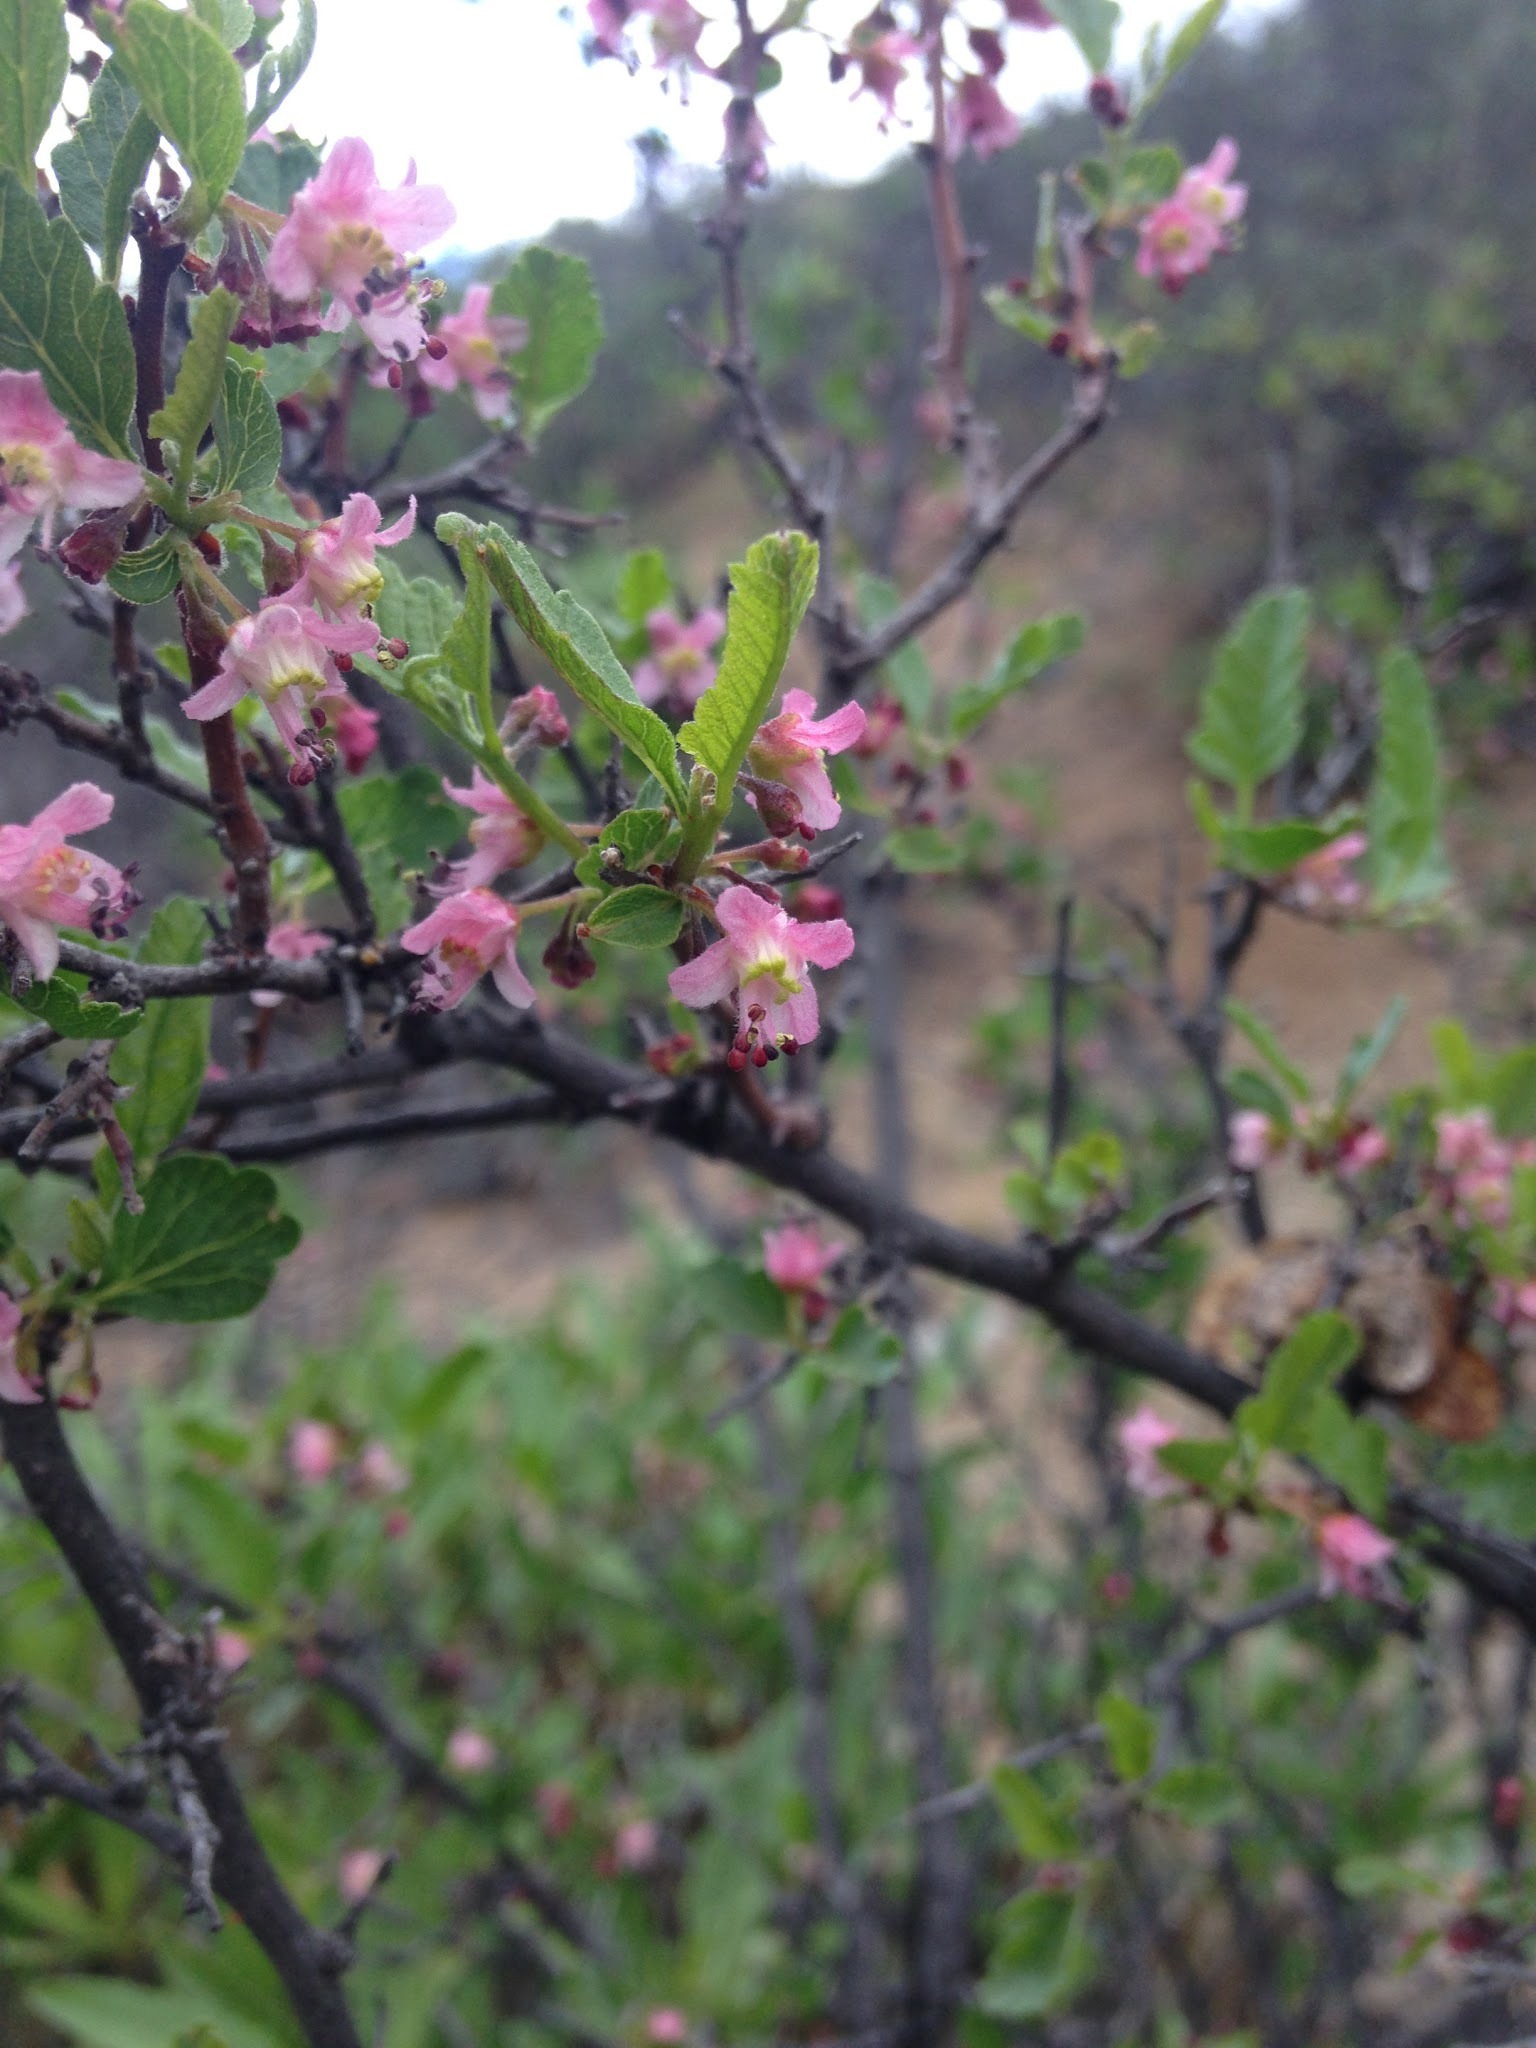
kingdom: Plantae
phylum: Tracheophyta
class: Magnoliopsida
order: Sapindales
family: Sapindaceae
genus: Bridgesia
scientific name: Bridgesia incisifolia
